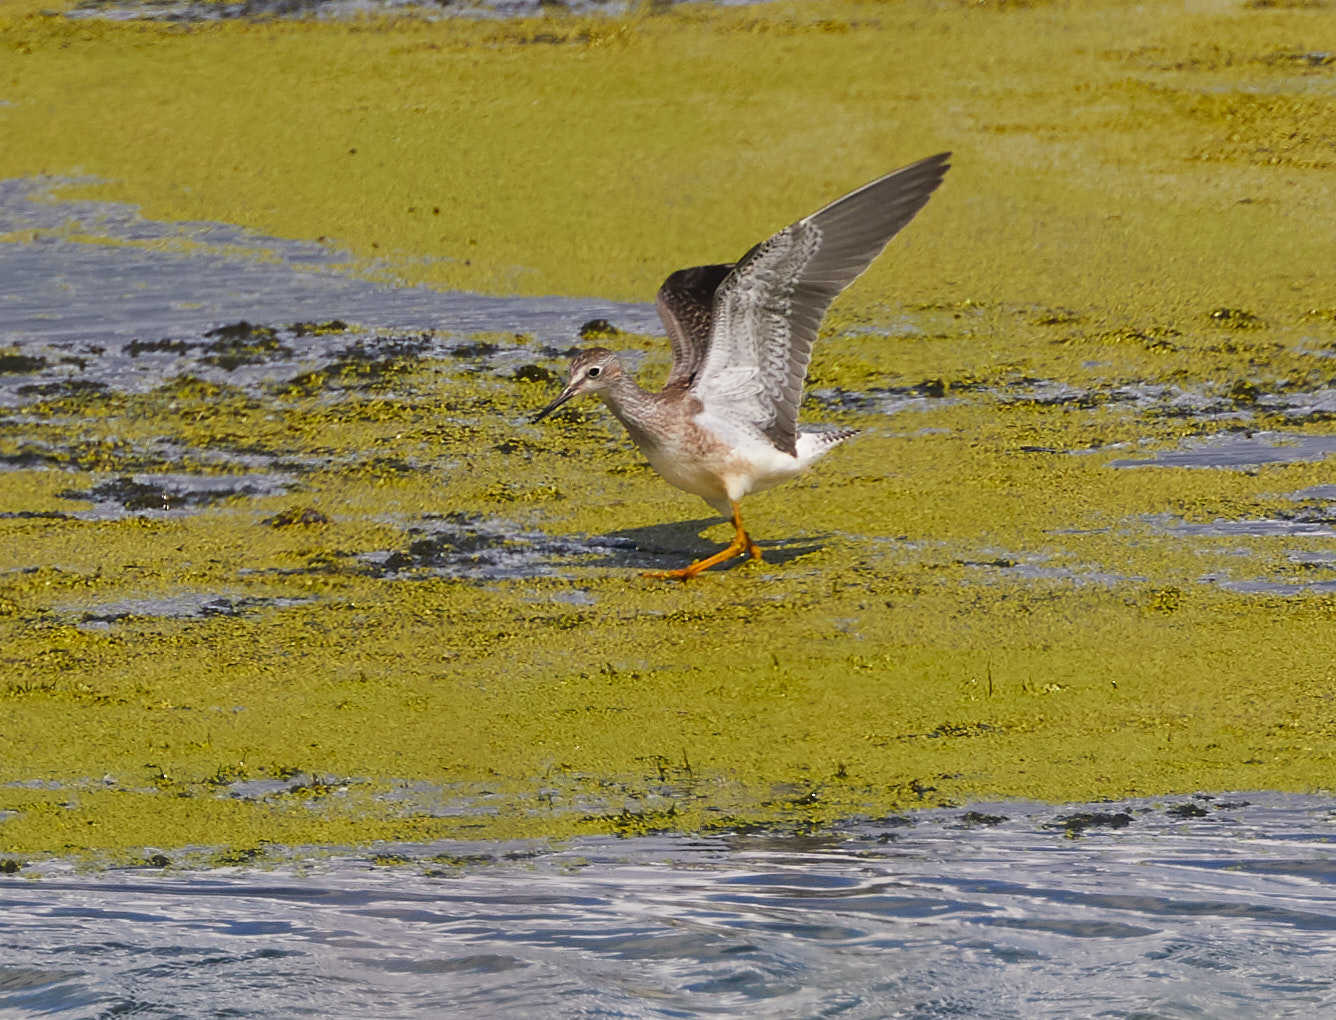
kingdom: Animalia
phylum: Chordata
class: Aves
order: Charadriiformes
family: Scolopacidae
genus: Tringa
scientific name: Tringa flavipes
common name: Lesser yellowlegs
